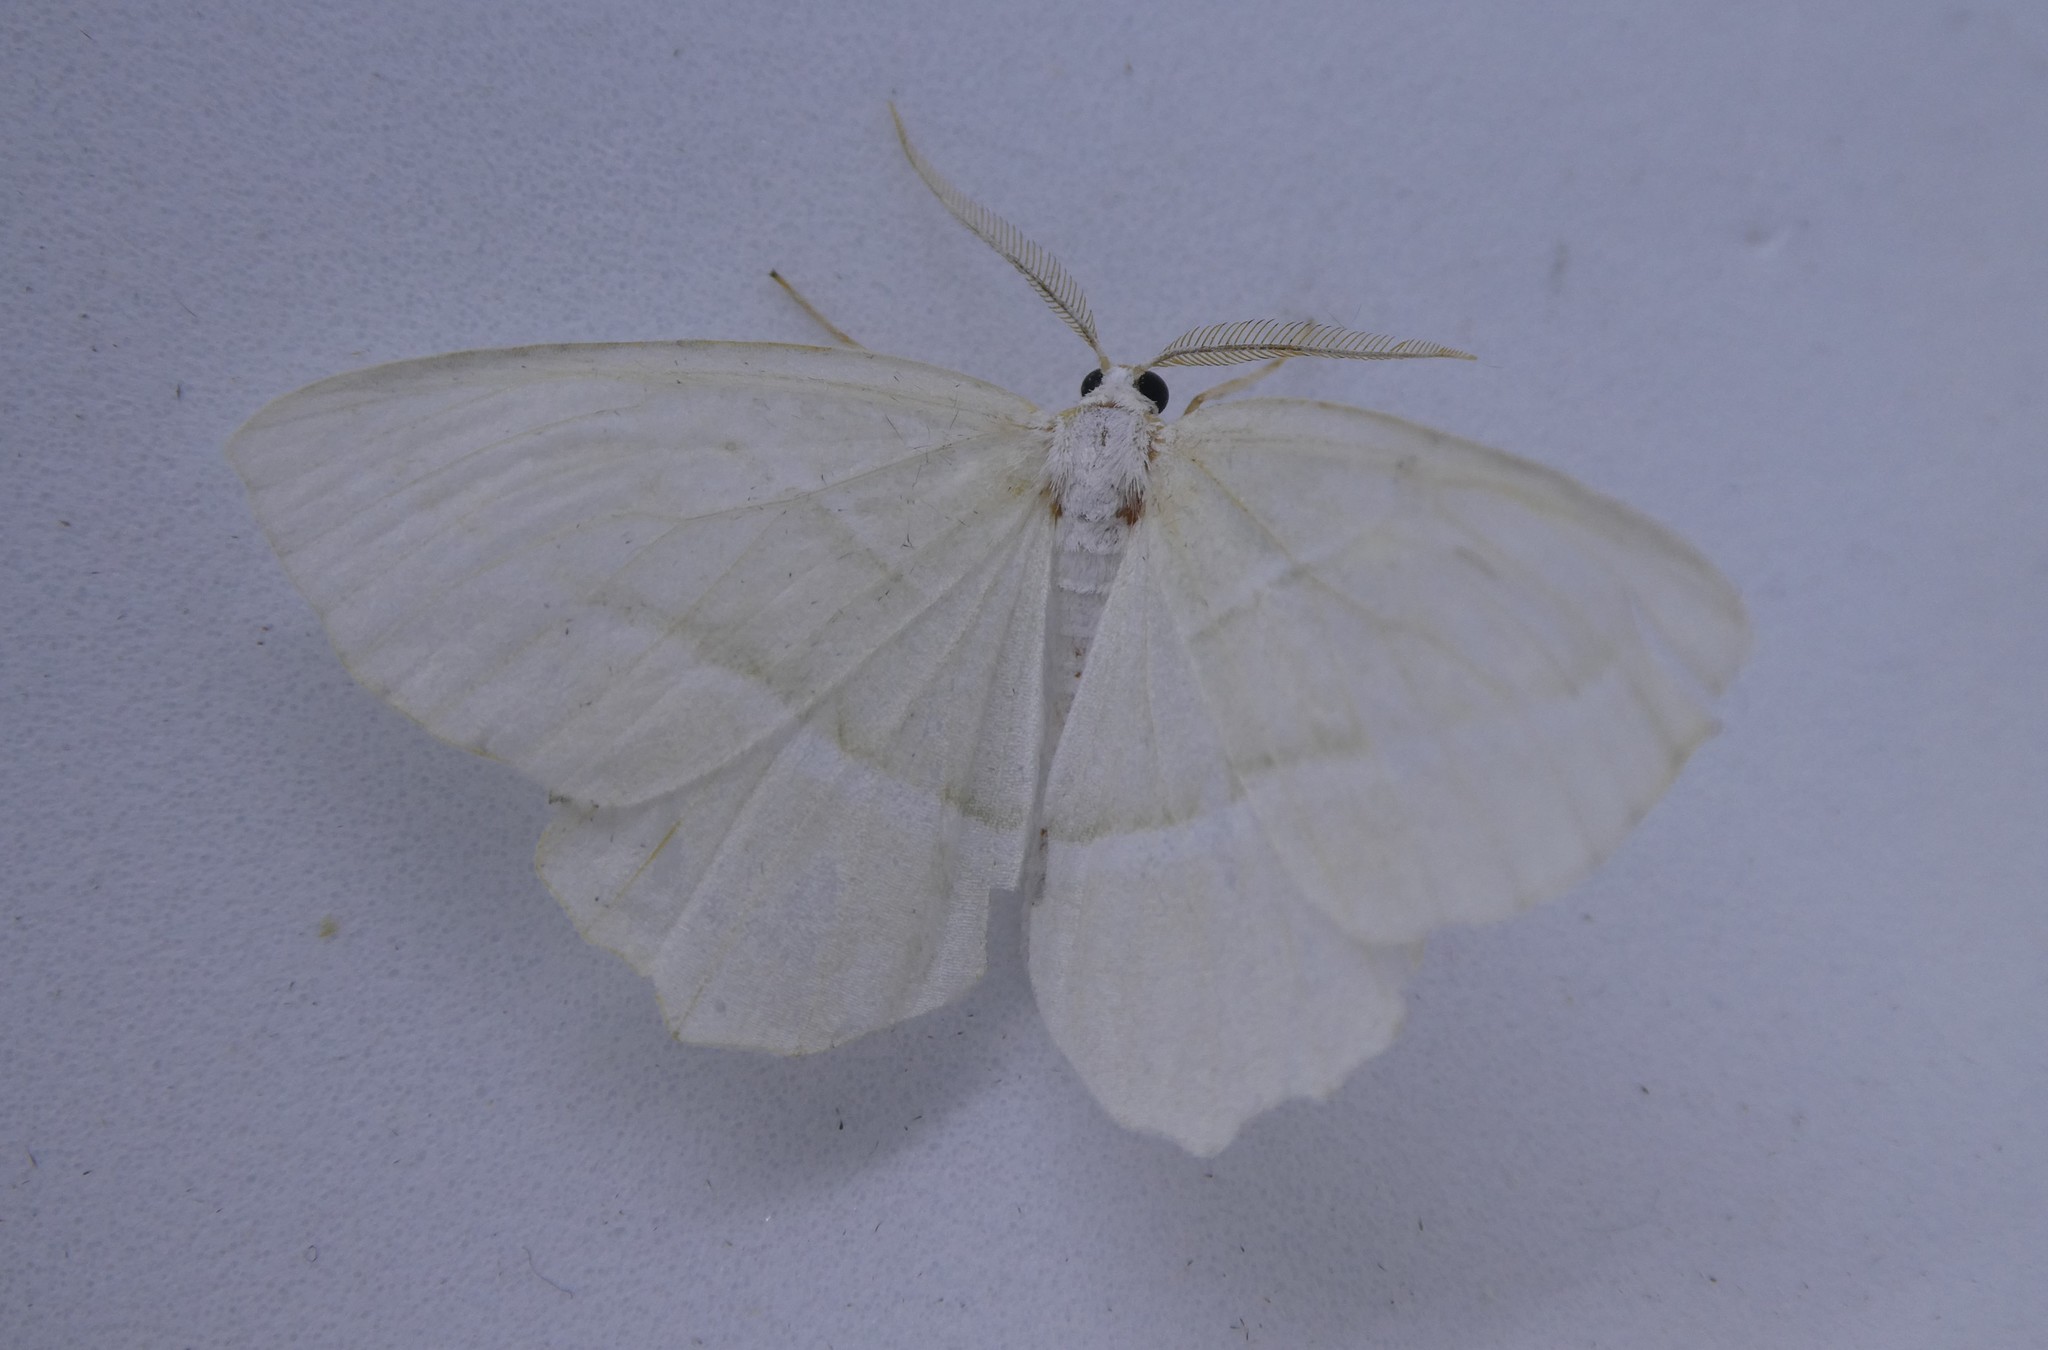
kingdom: Animalia
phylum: Arthropoda
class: Insecta
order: Lepidoptera
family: Geometridae
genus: Campaea
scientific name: Campaea perlata
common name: Fringed looper
